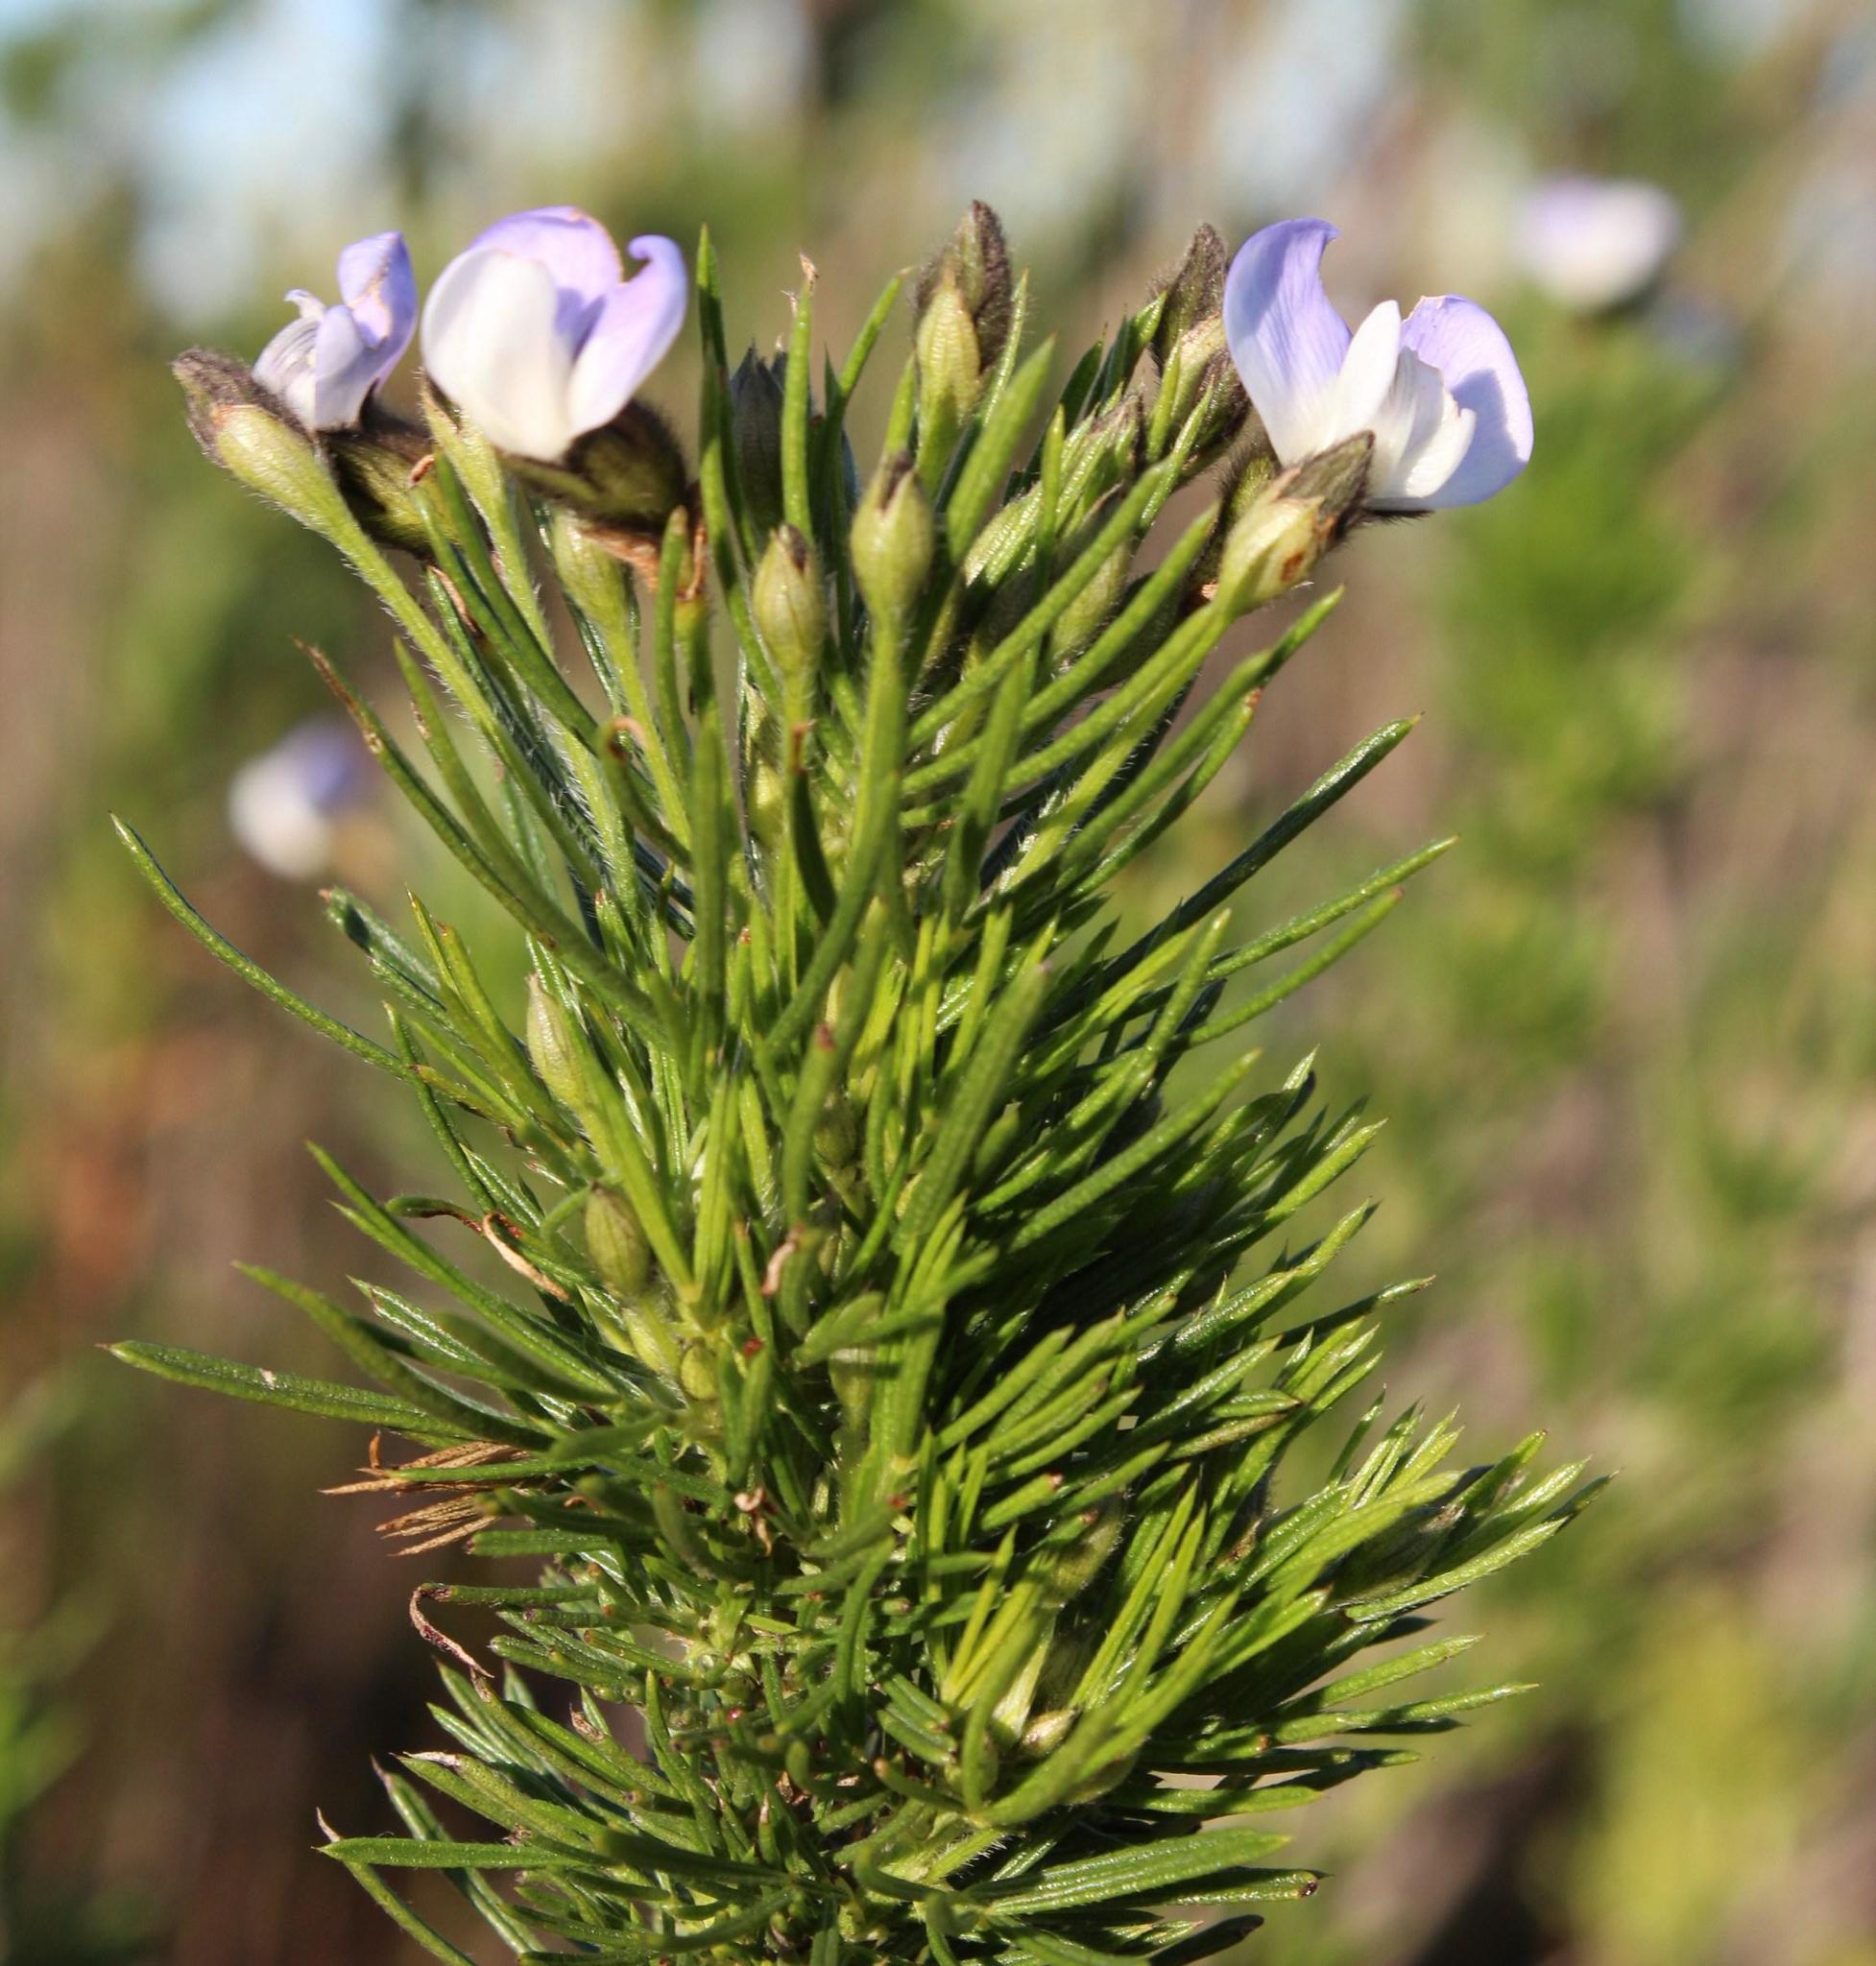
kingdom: Plantae
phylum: Tracheophyta
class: Magnoliopsida
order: Fabales
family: Fabaceae
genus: Psoralea
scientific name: Psoralea arborea
